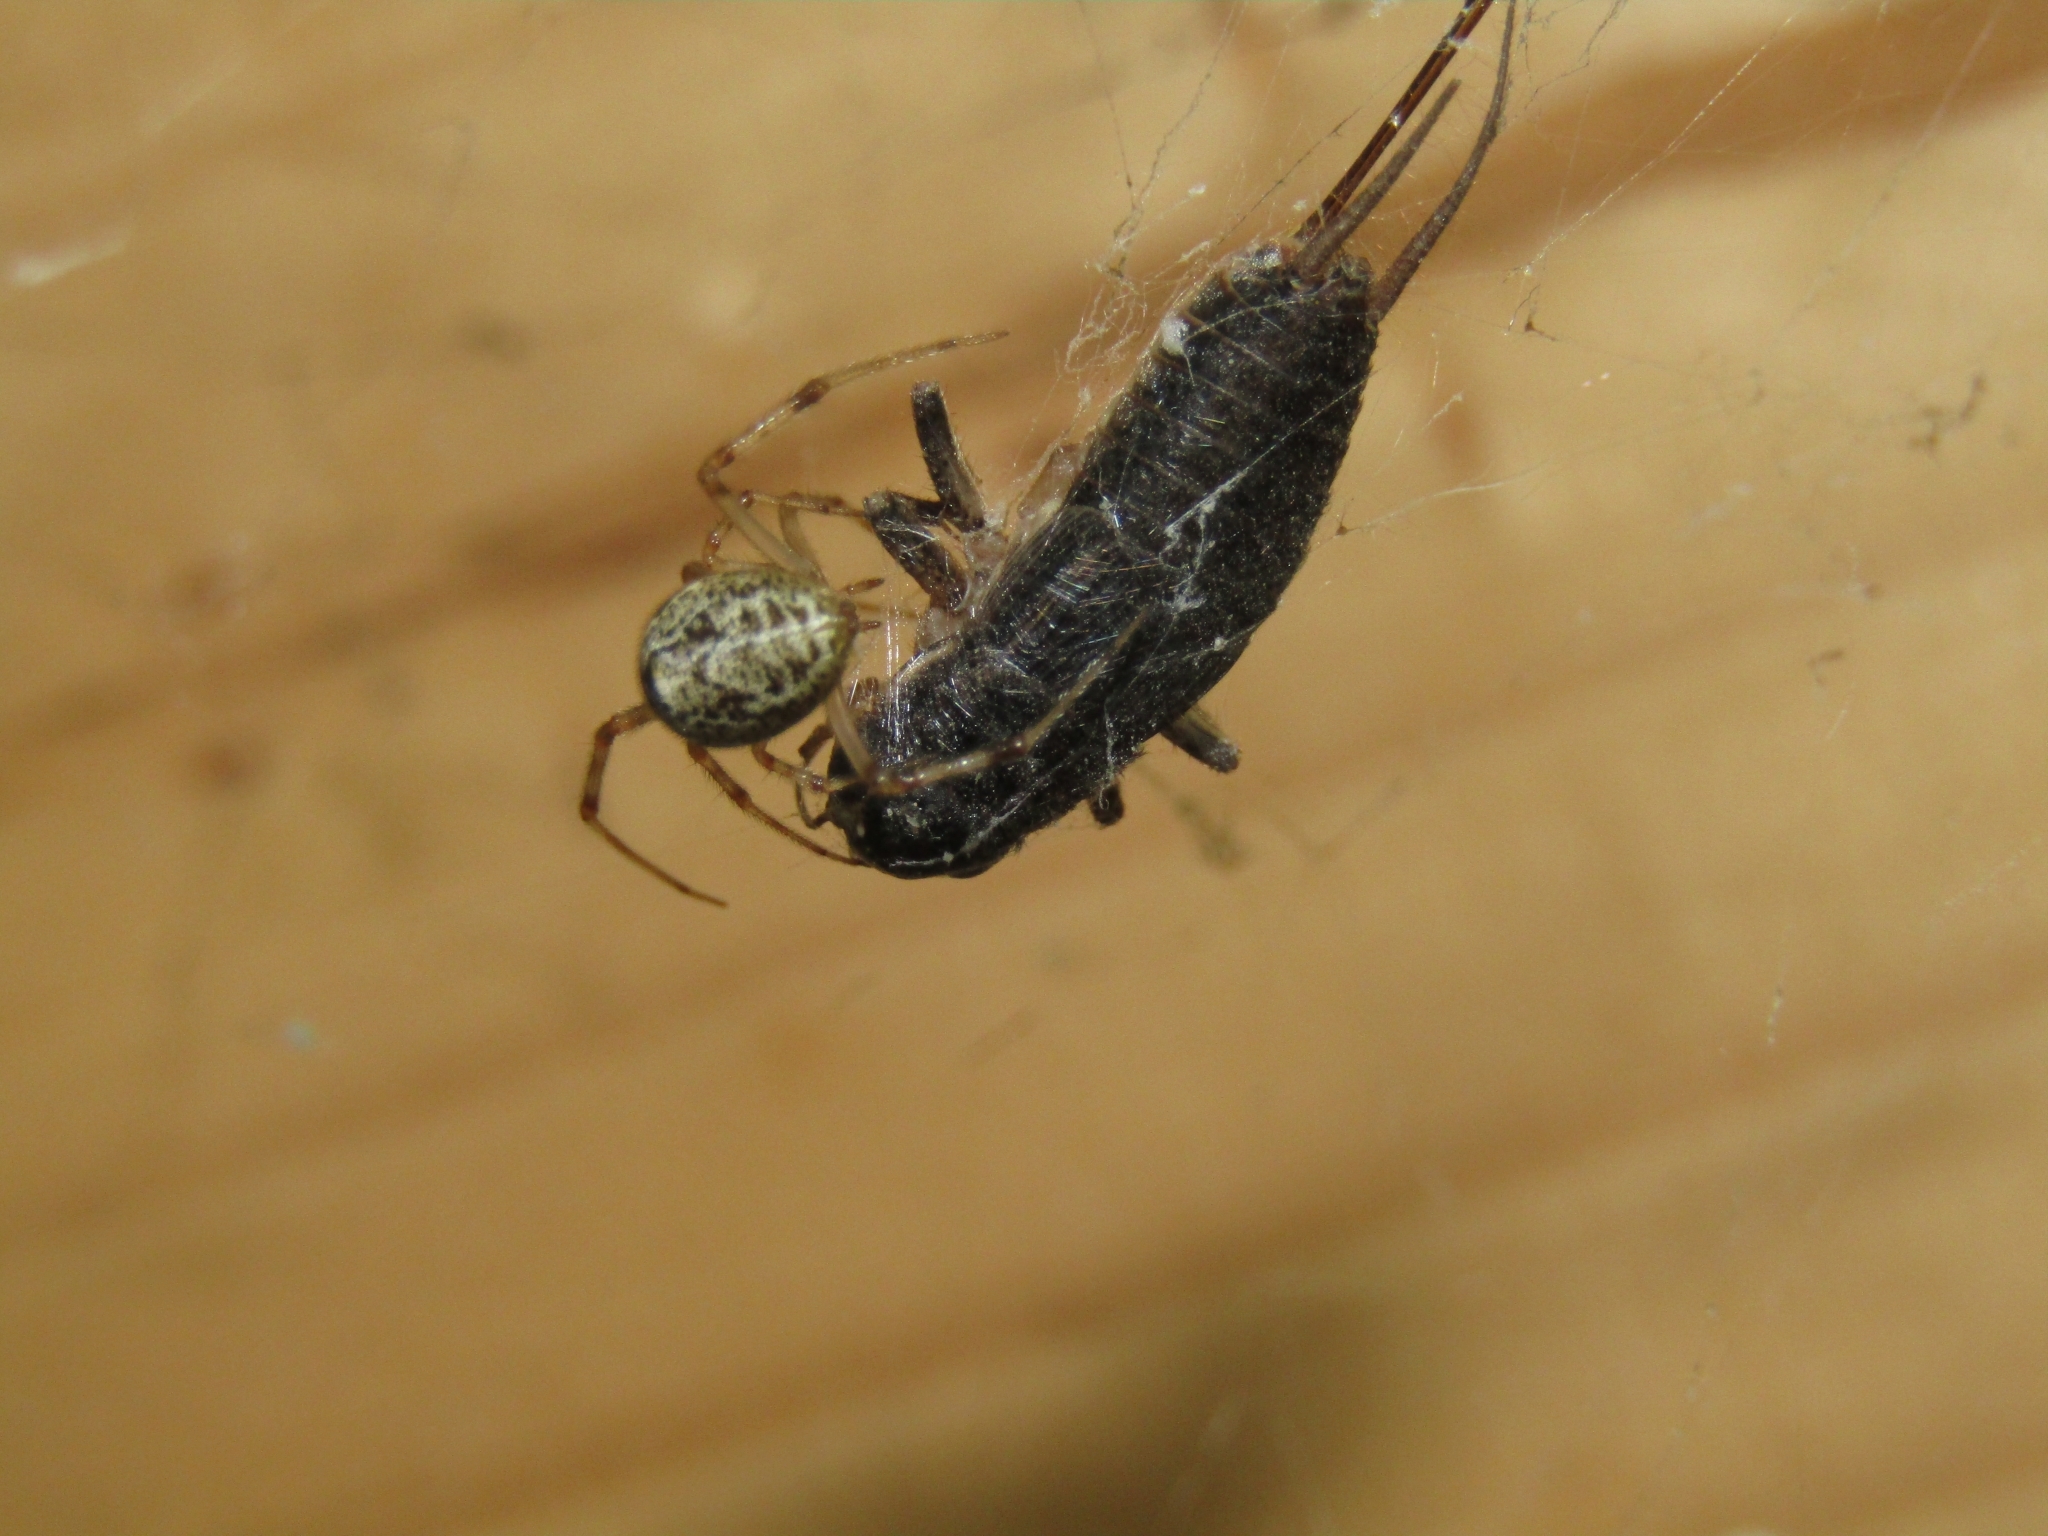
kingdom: Animalia
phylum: Arthropoda
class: Arachnida
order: Araneae
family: Theridiidae
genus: Parasteatoda
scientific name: Parasteatoda tepidariorum
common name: Common house spider
